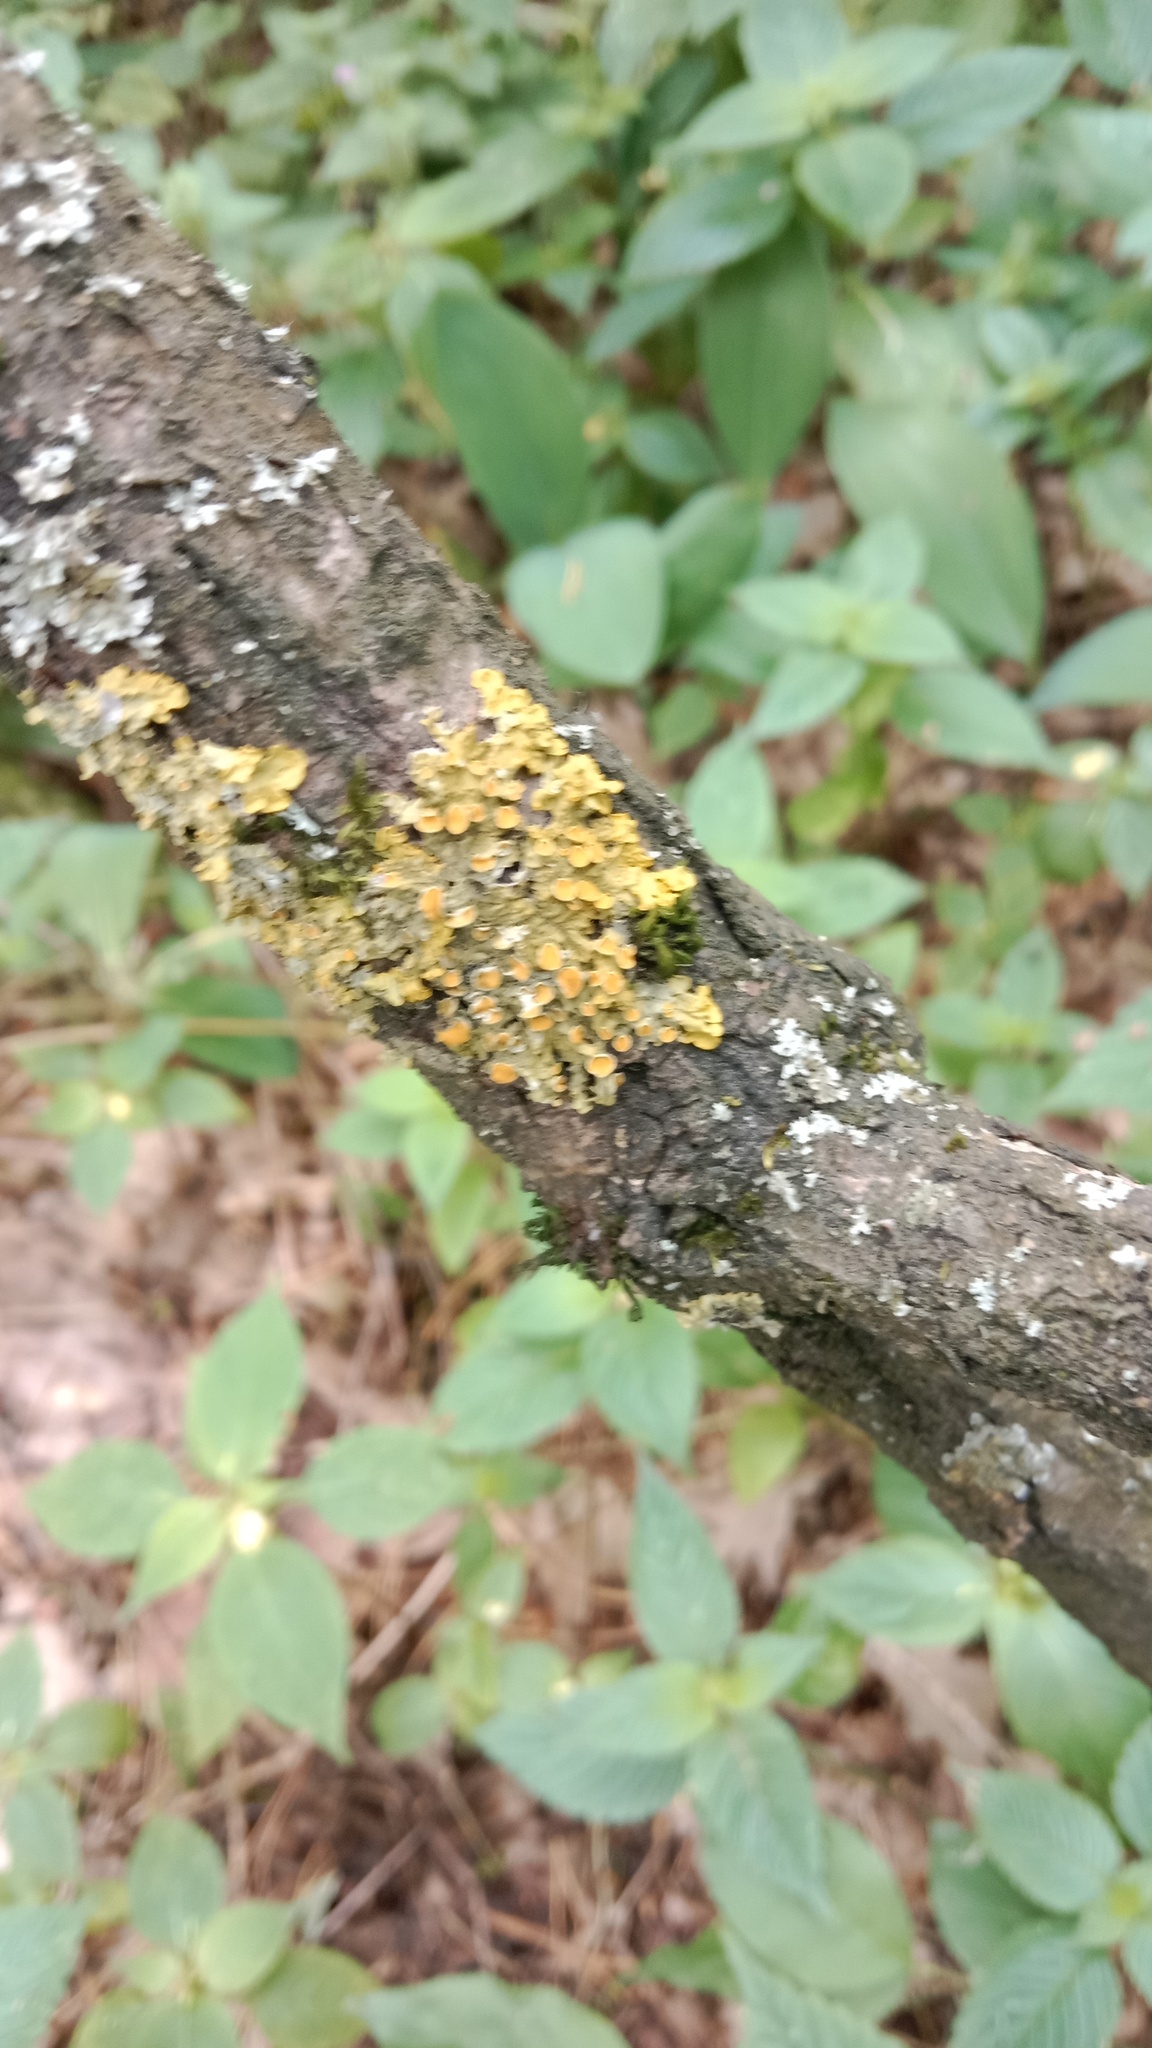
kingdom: Fungi
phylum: Ascomycota
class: Lecanoromycetes
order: Teloschistales
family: Teloschistaceae
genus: Xanthoria
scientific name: Xanthoria parietina
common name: Common orange lichen
